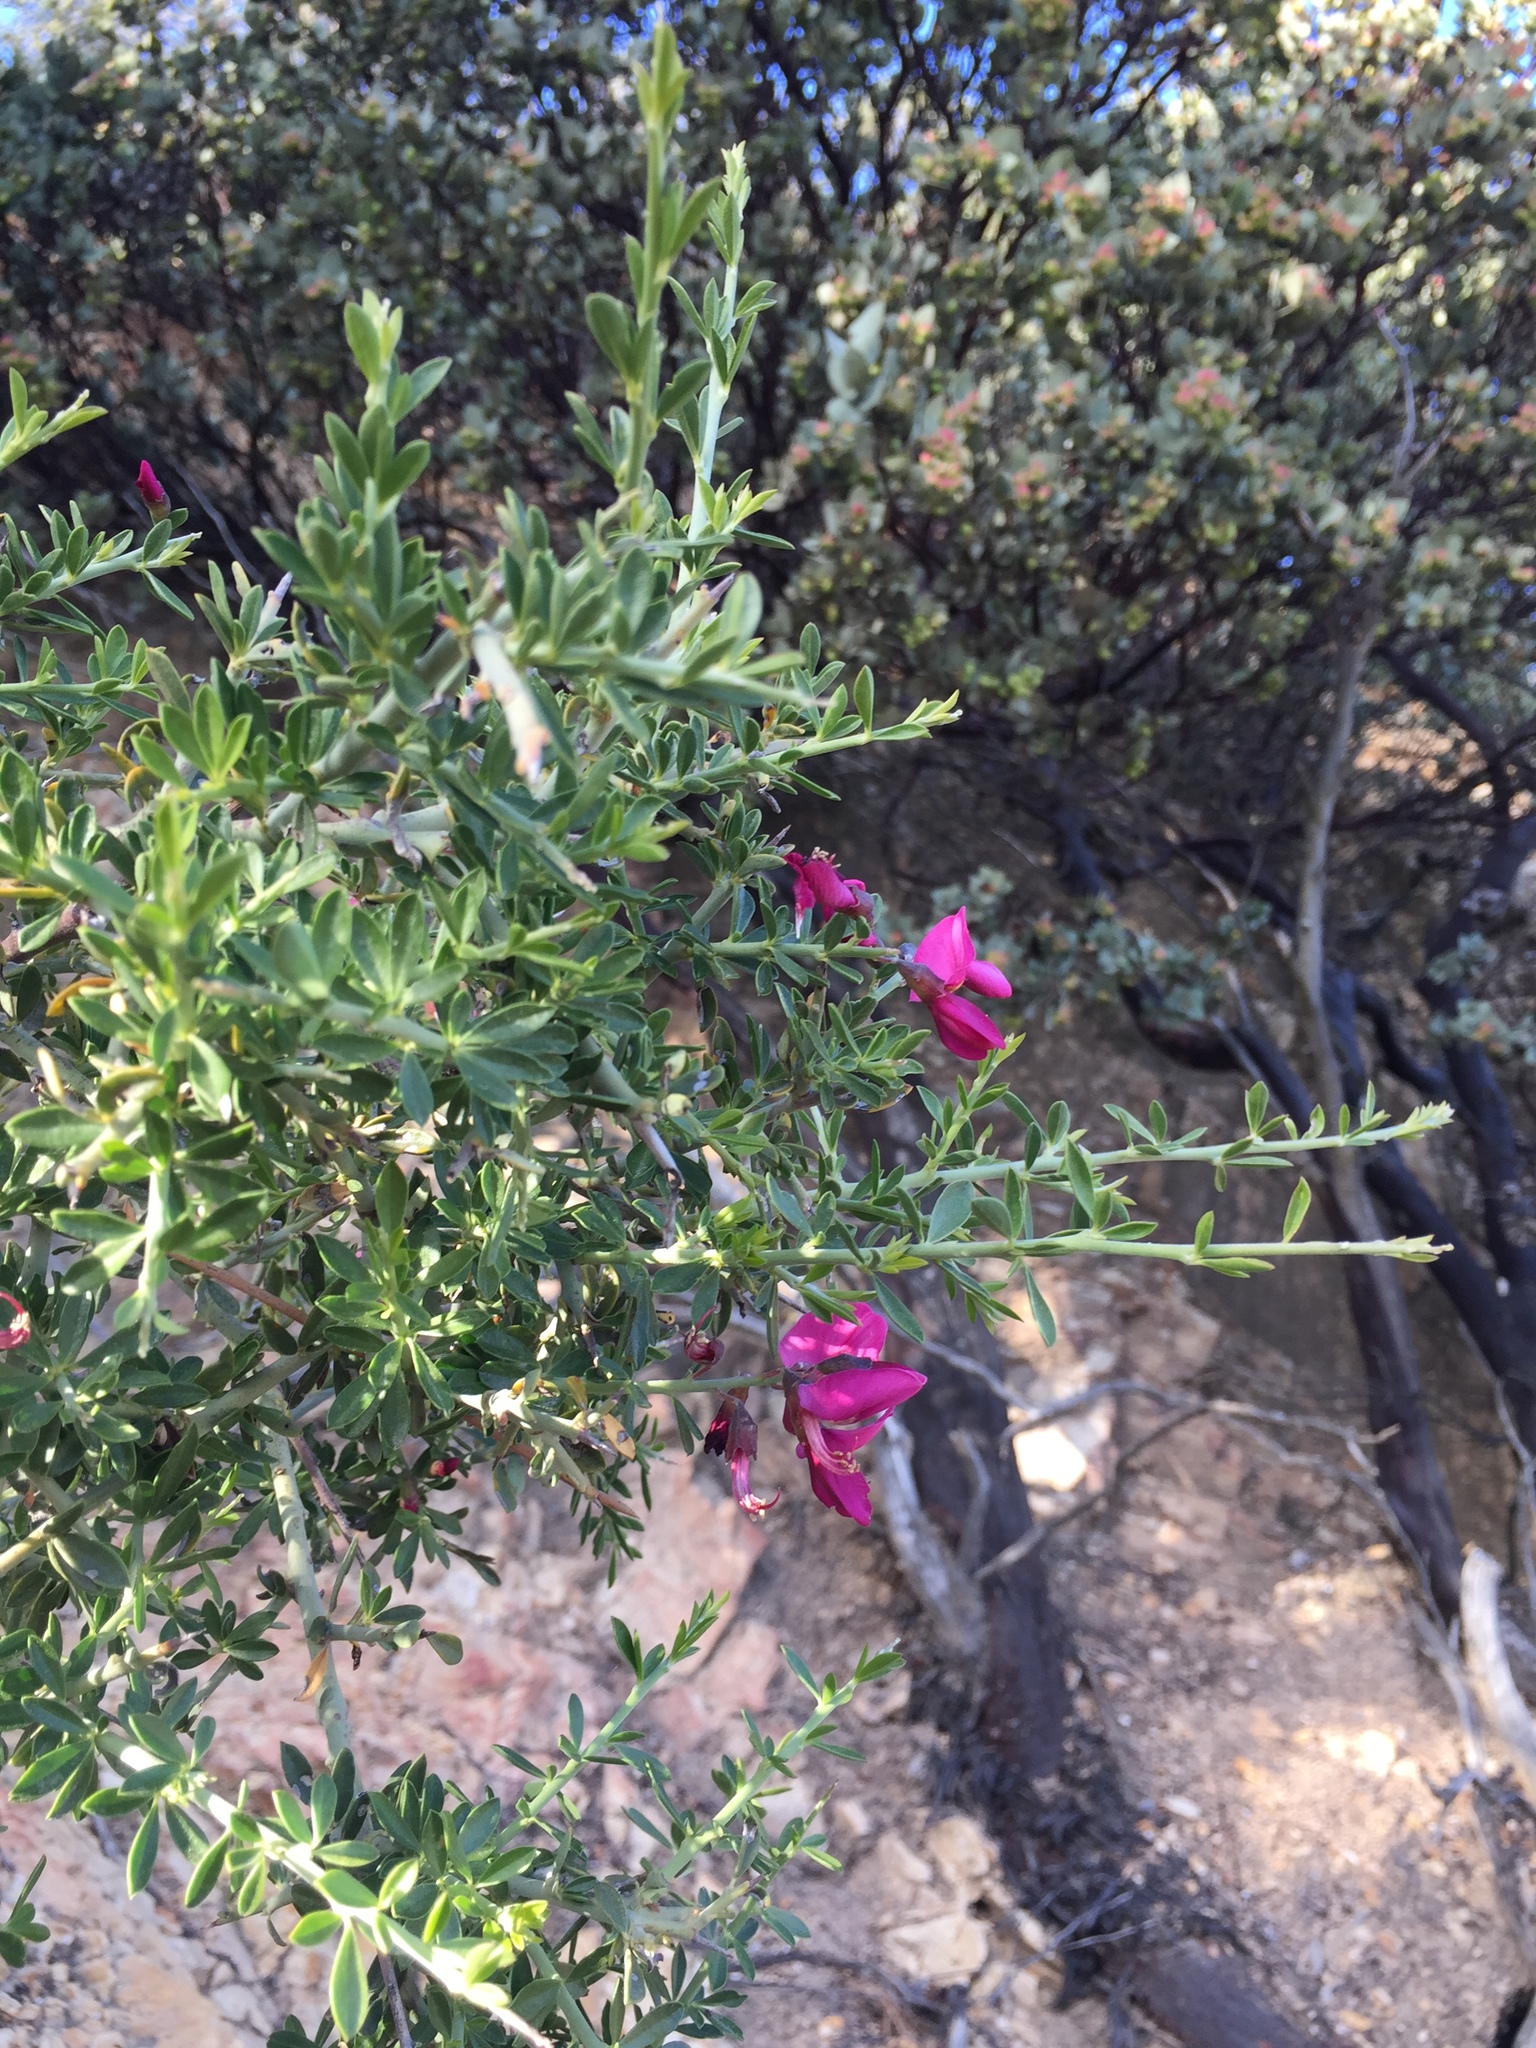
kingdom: Plantae
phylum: Tracheophyta
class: Magnoliopsida
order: Fabales
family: Fabaceae
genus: Pickeringia
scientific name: Pickeringia montana
